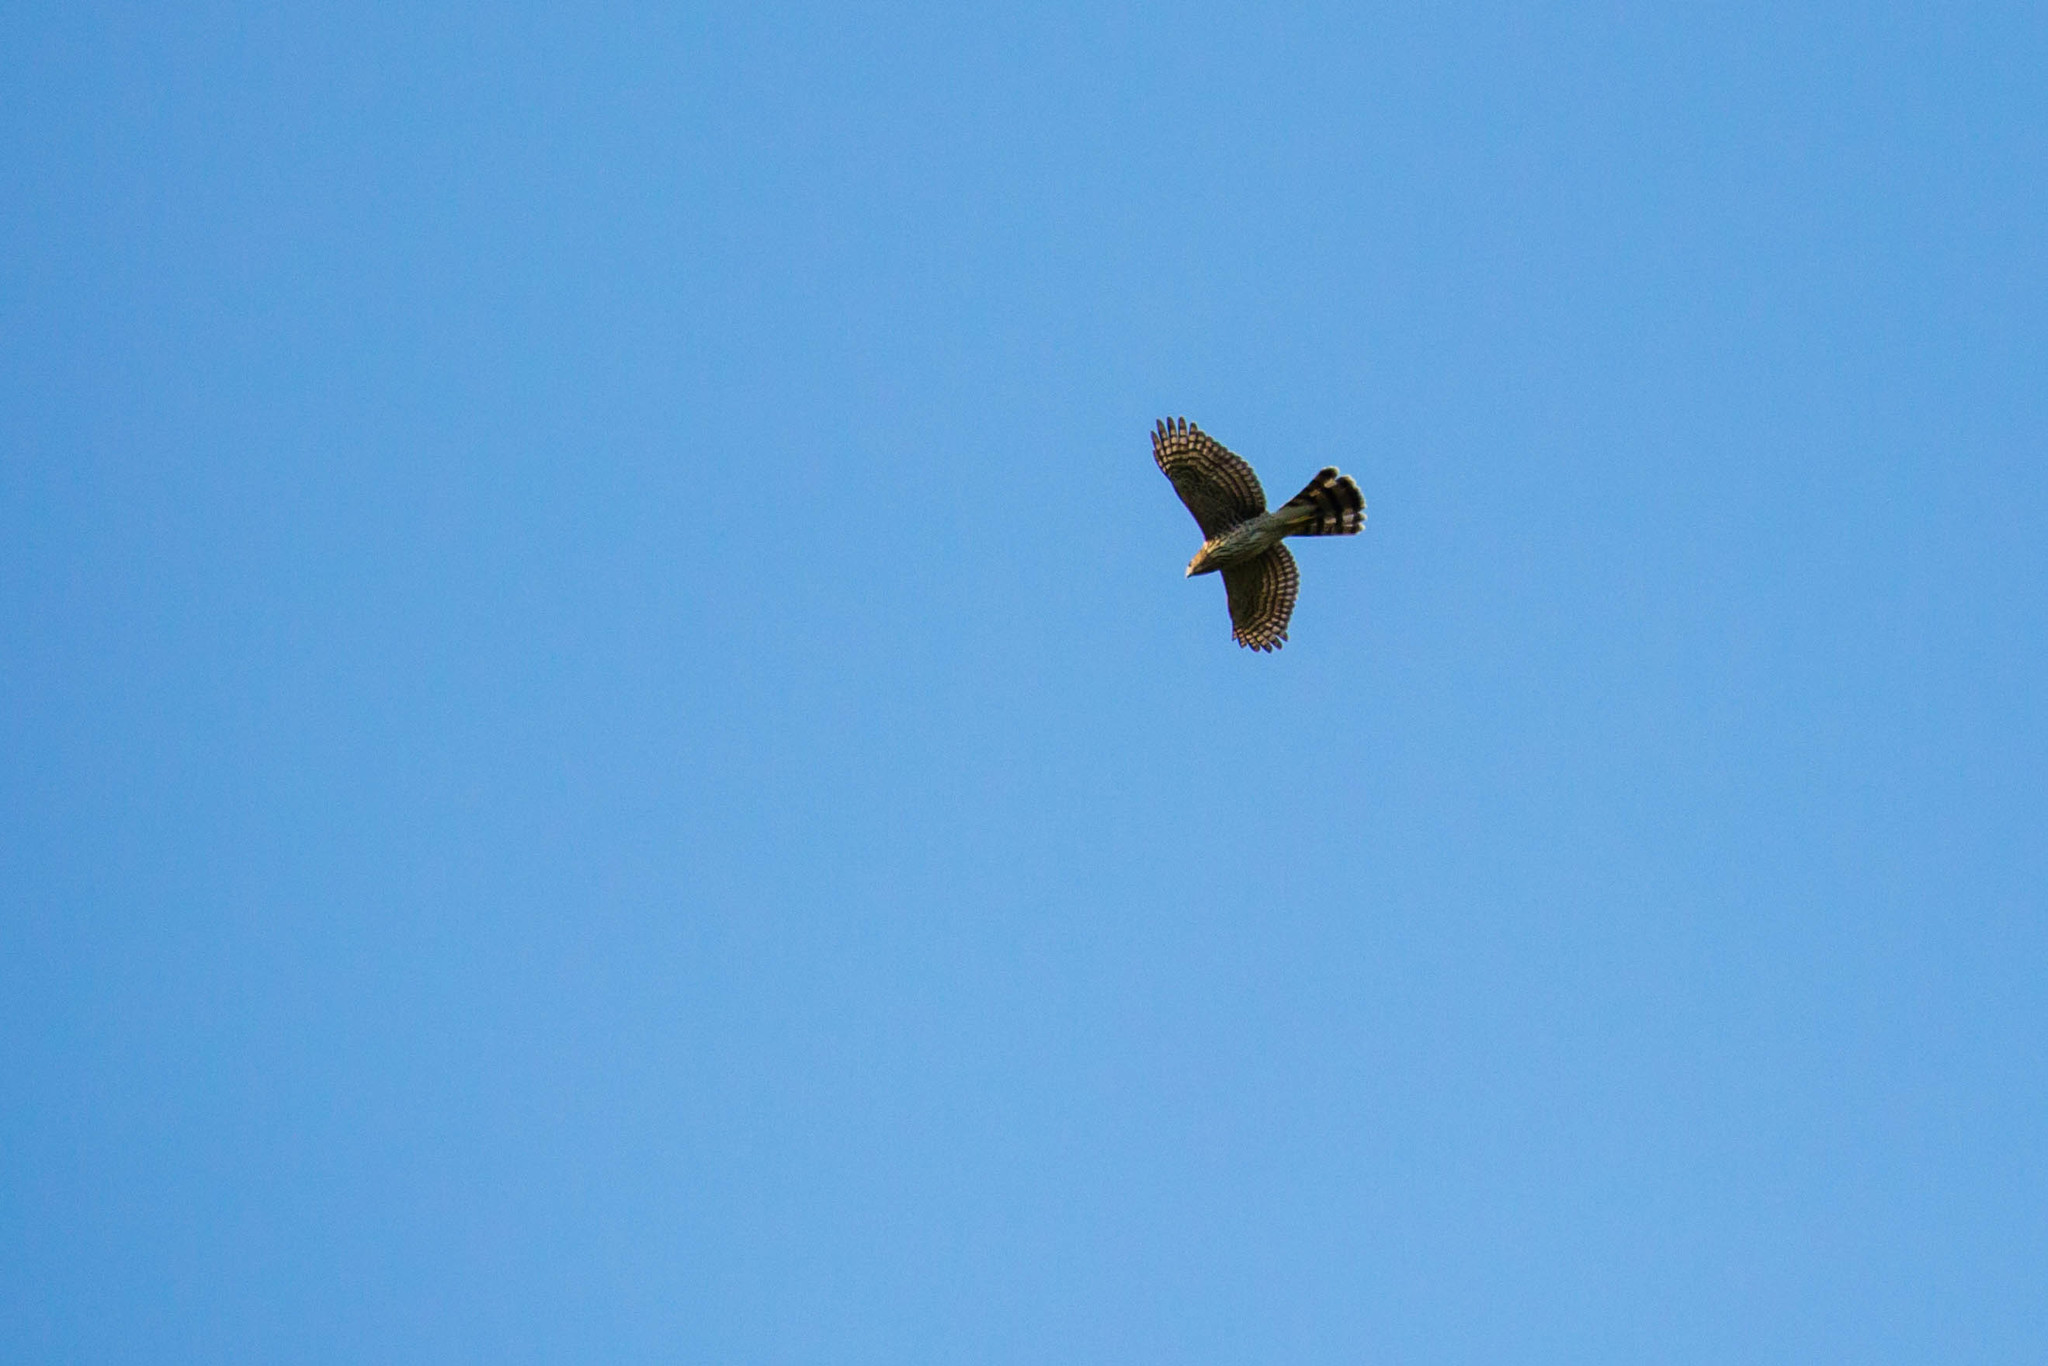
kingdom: Animalia
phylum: Chordata
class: Aves
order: Accipitriformes
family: Accipitridae
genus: Accipiter
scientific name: Accipiter cooperii
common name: Cooper's hawk
